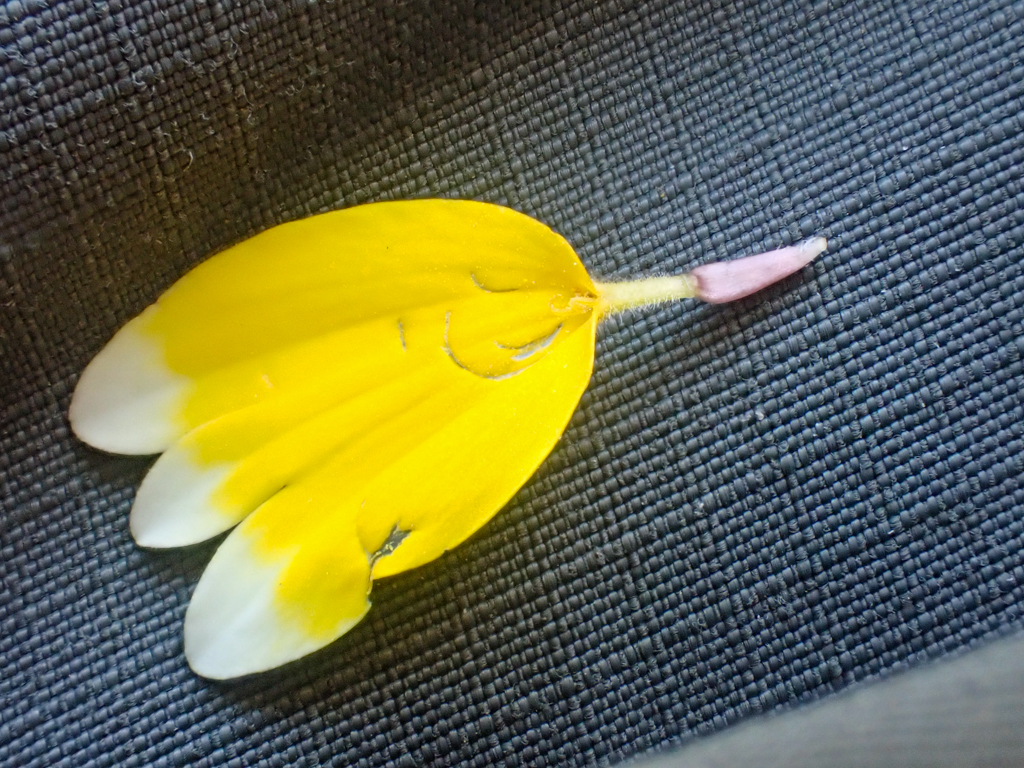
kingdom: Plantae
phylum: Tracheophyta
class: Magnoliopsida
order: Asterales
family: Asteraceae
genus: Layia
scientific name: Layia platyglossa
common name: Tidy-tips
